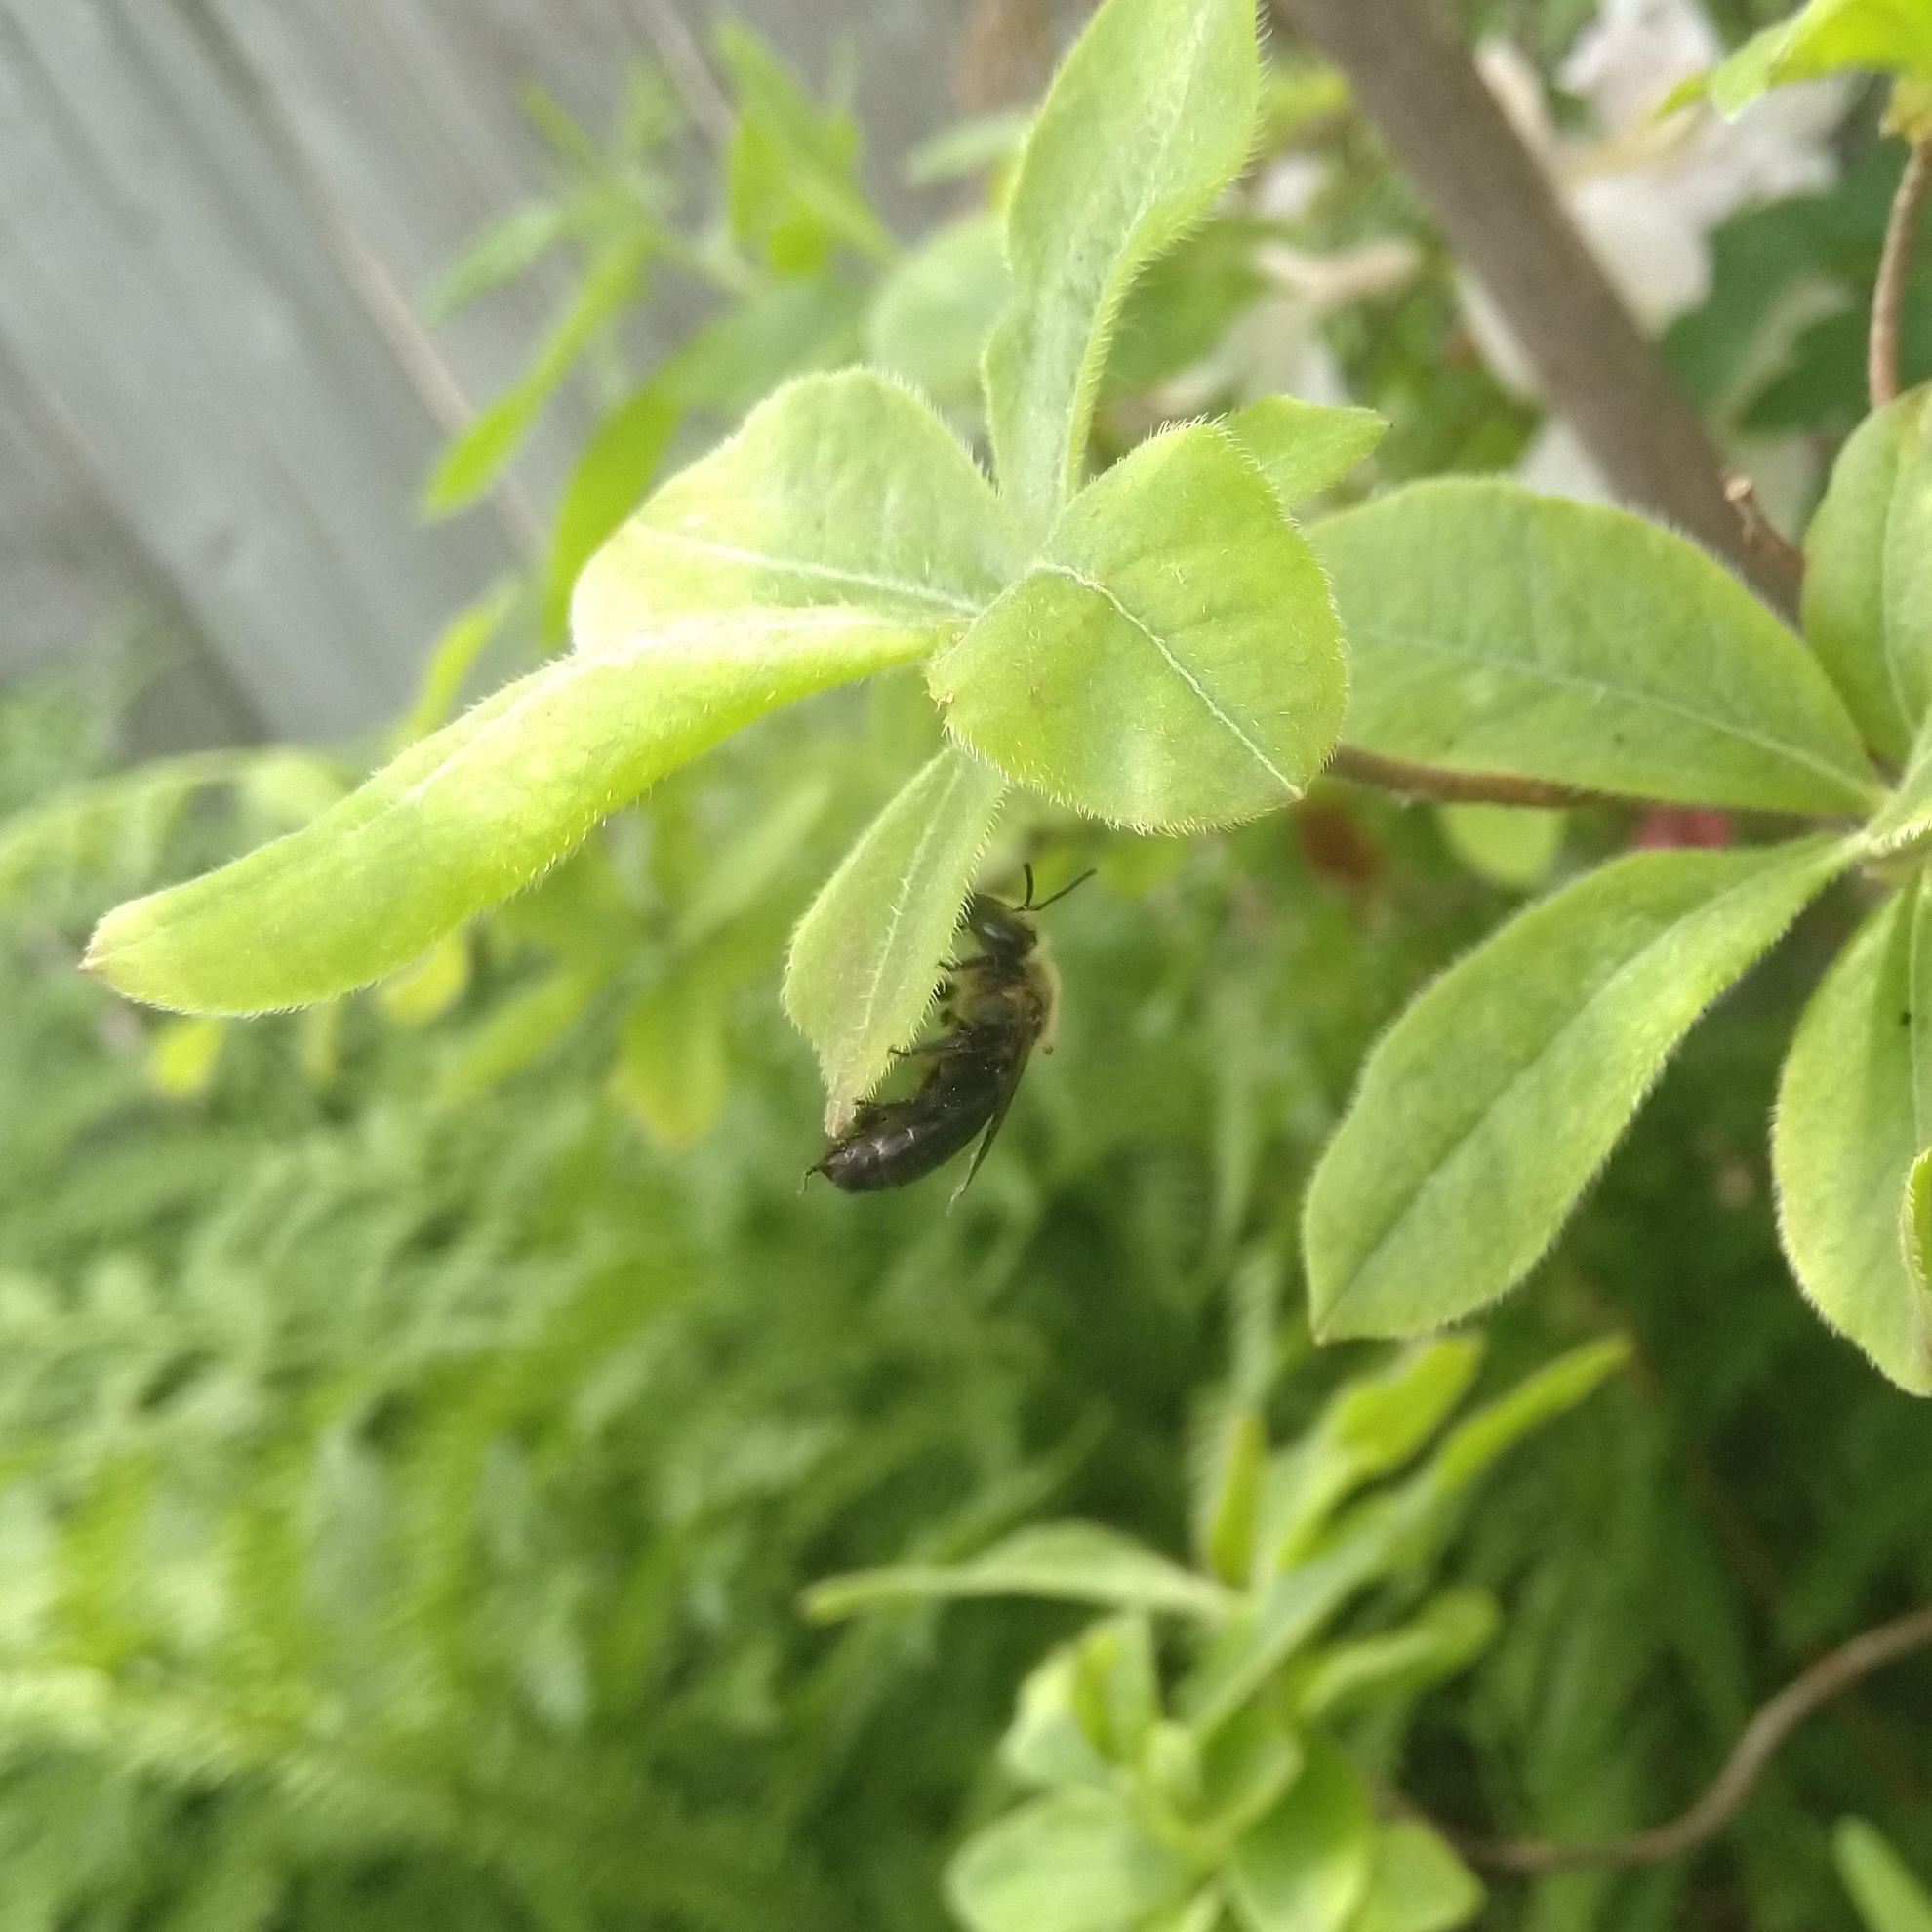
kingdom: Animalia
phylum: Arthropoda
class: Insecta
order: Hymenoptera
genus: Melandrena
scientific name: Melandrena
